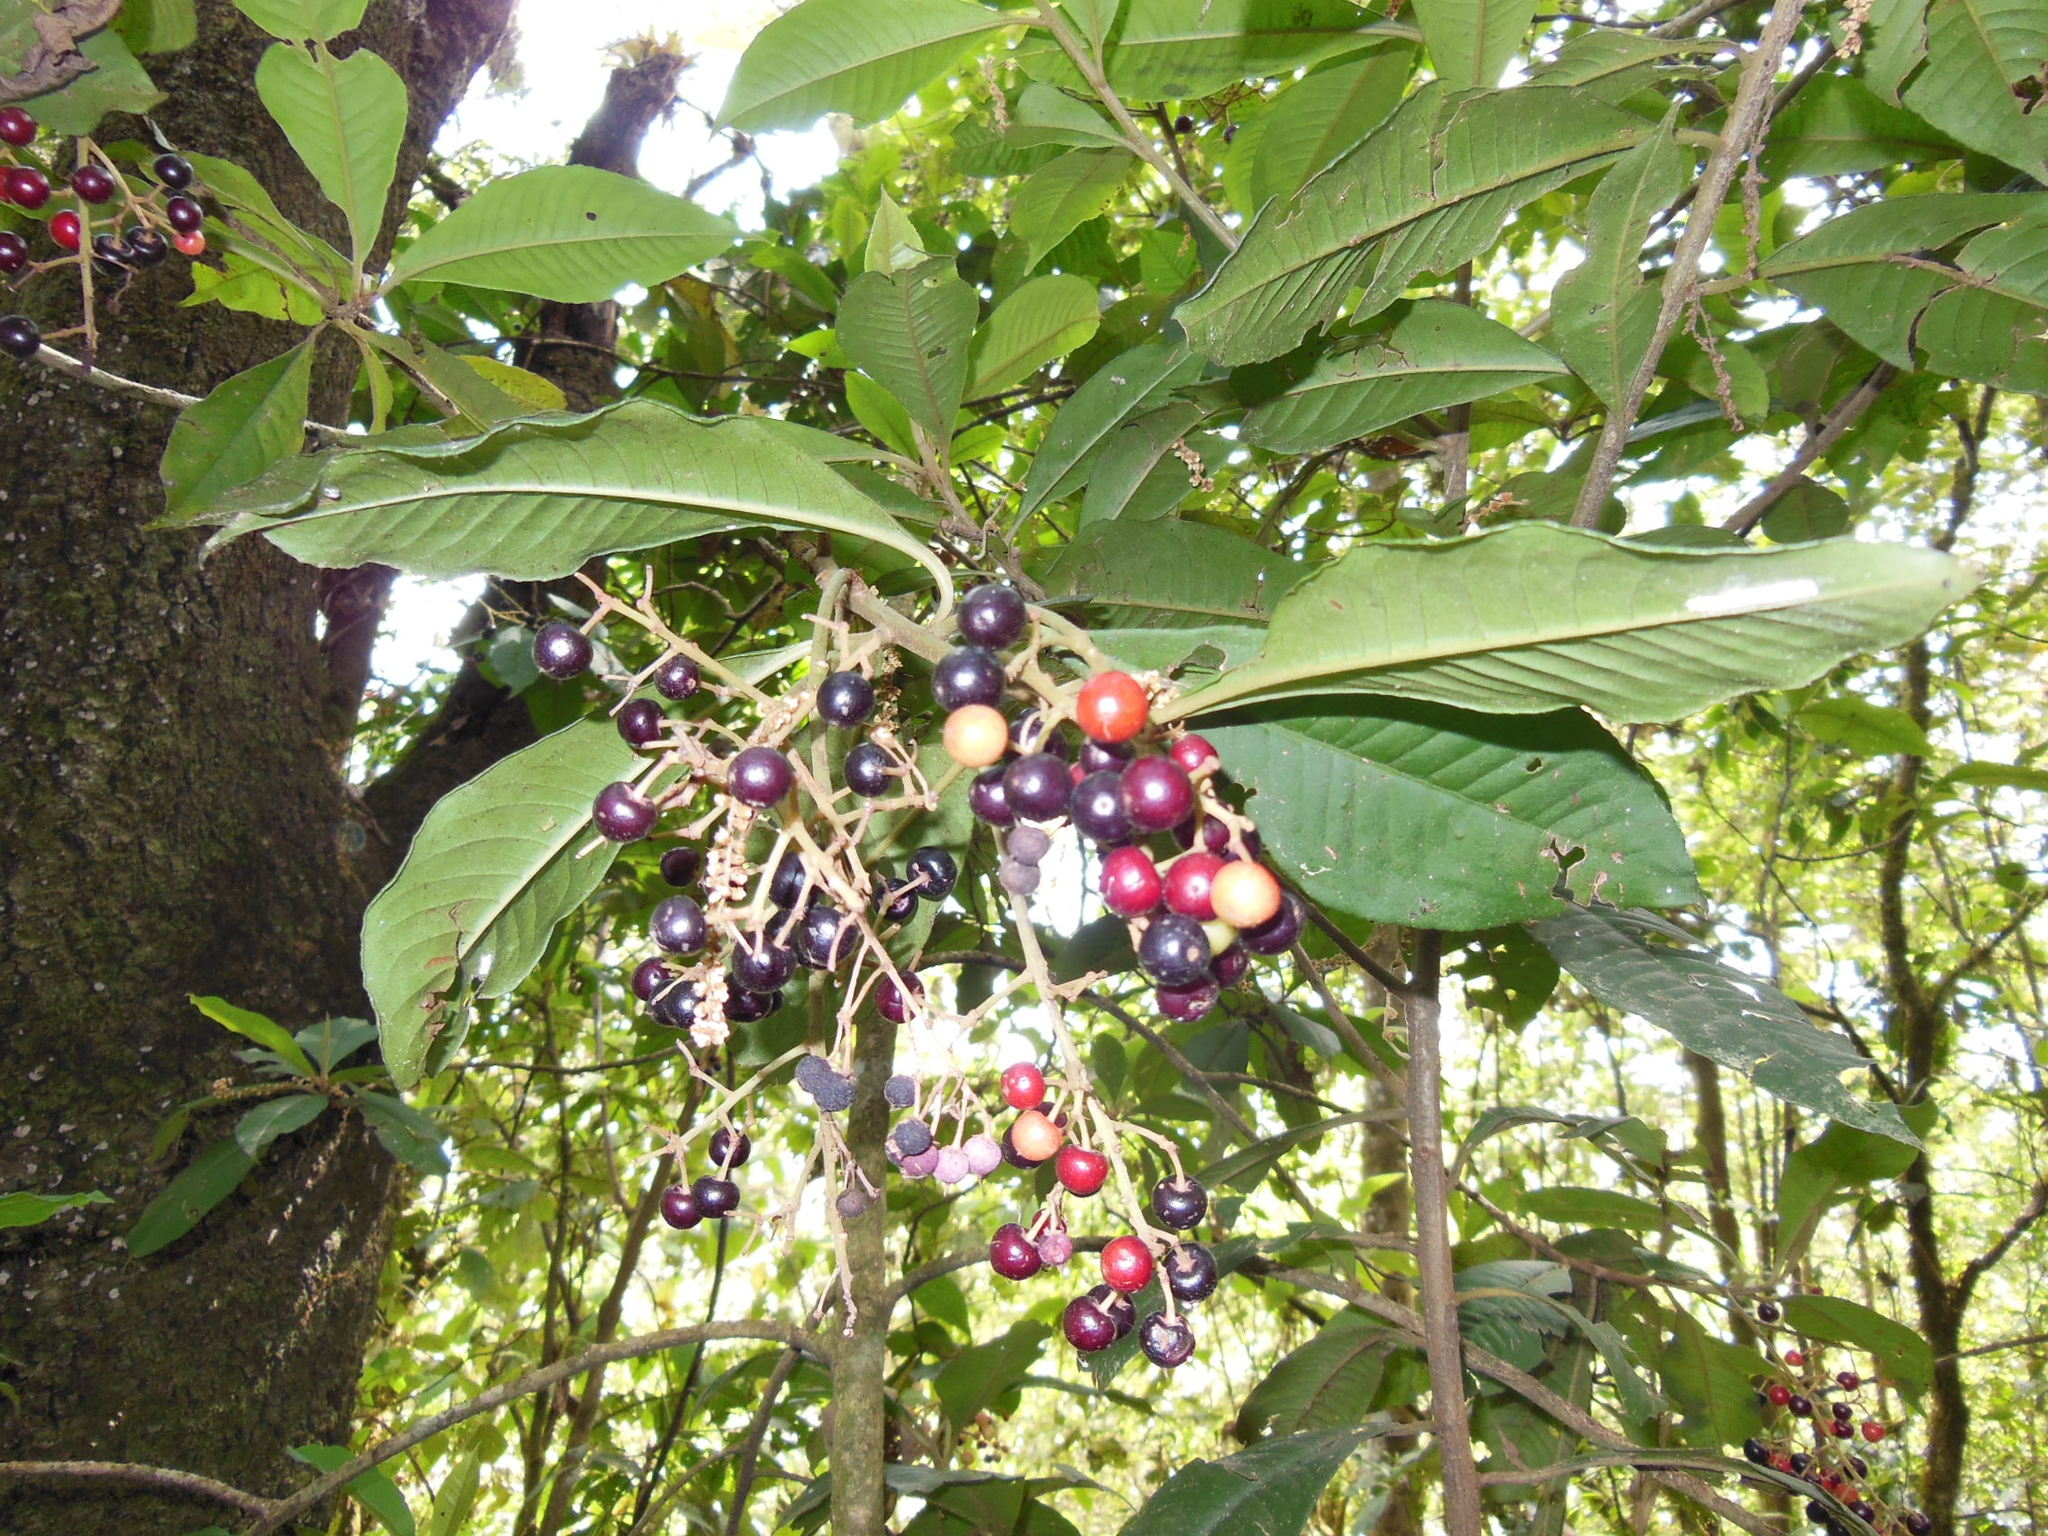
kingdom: Plantae
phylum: Tracheophyta
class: Magnoliopsida
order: Ericales
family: Primulaceae
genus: Parathesis
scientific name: Parathesis leptopa
